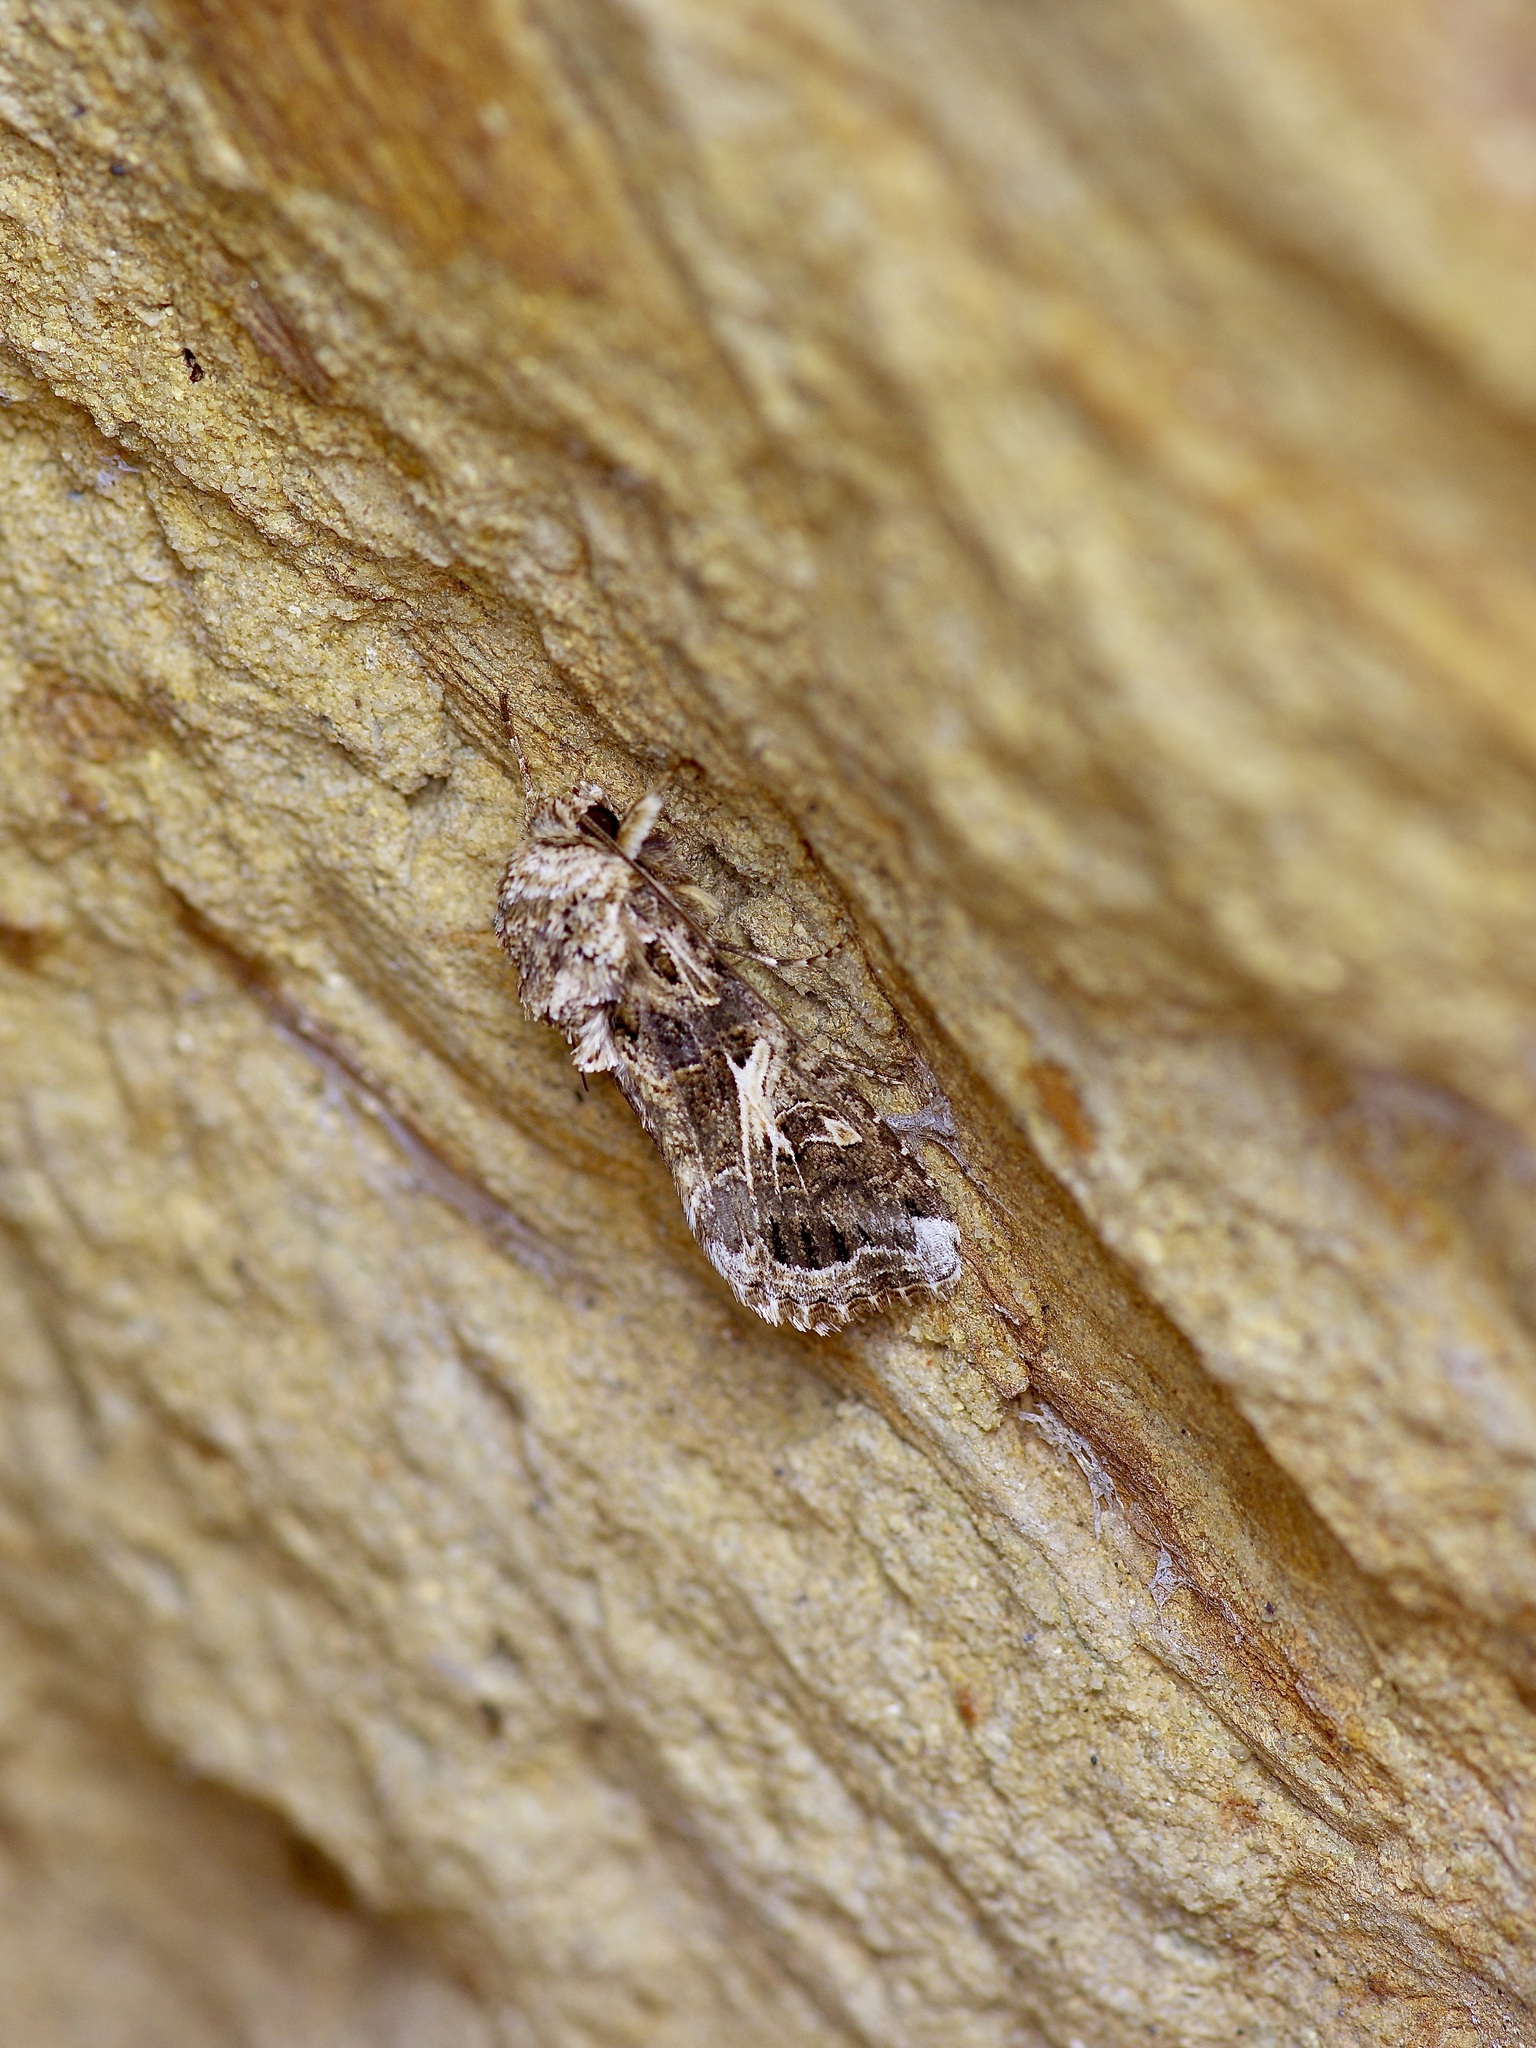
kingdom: Animalia
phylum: Arthropoda
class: Insecta
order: Lepidoptera
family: Noctuidae
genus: Spodoptera
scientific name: Spodoptera ornithogalli
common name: Yellow-striped armyworm
